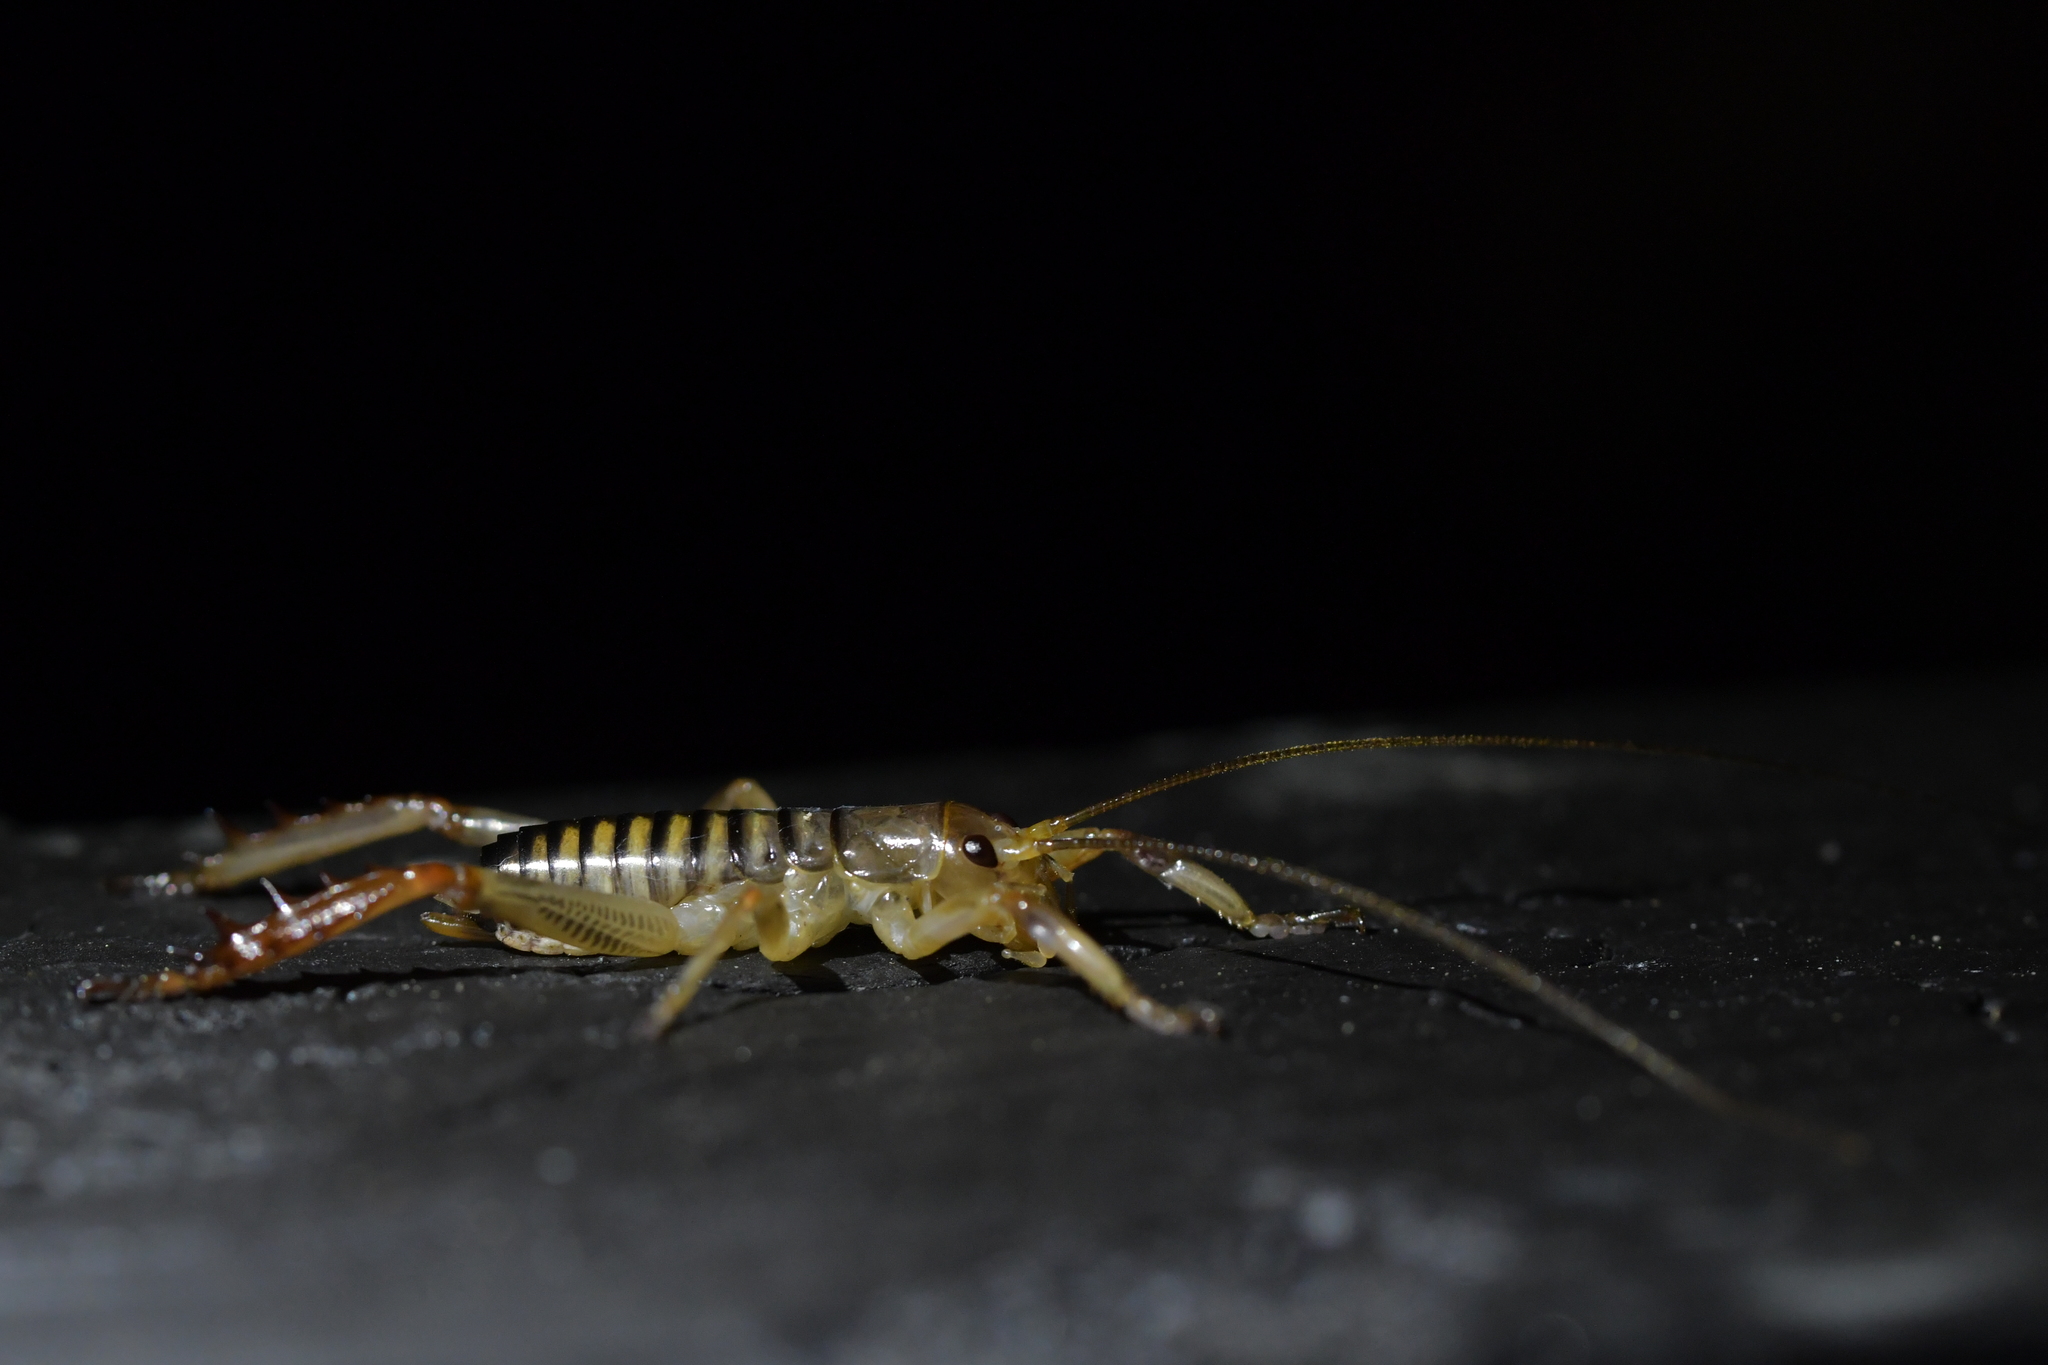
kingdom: Animalia
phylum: Arthropoda
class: Insecta
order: Orthoptera
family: Anostostomatidae
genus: Hemideina
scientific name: Hemideina crassidens
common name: Wellington tree weta
